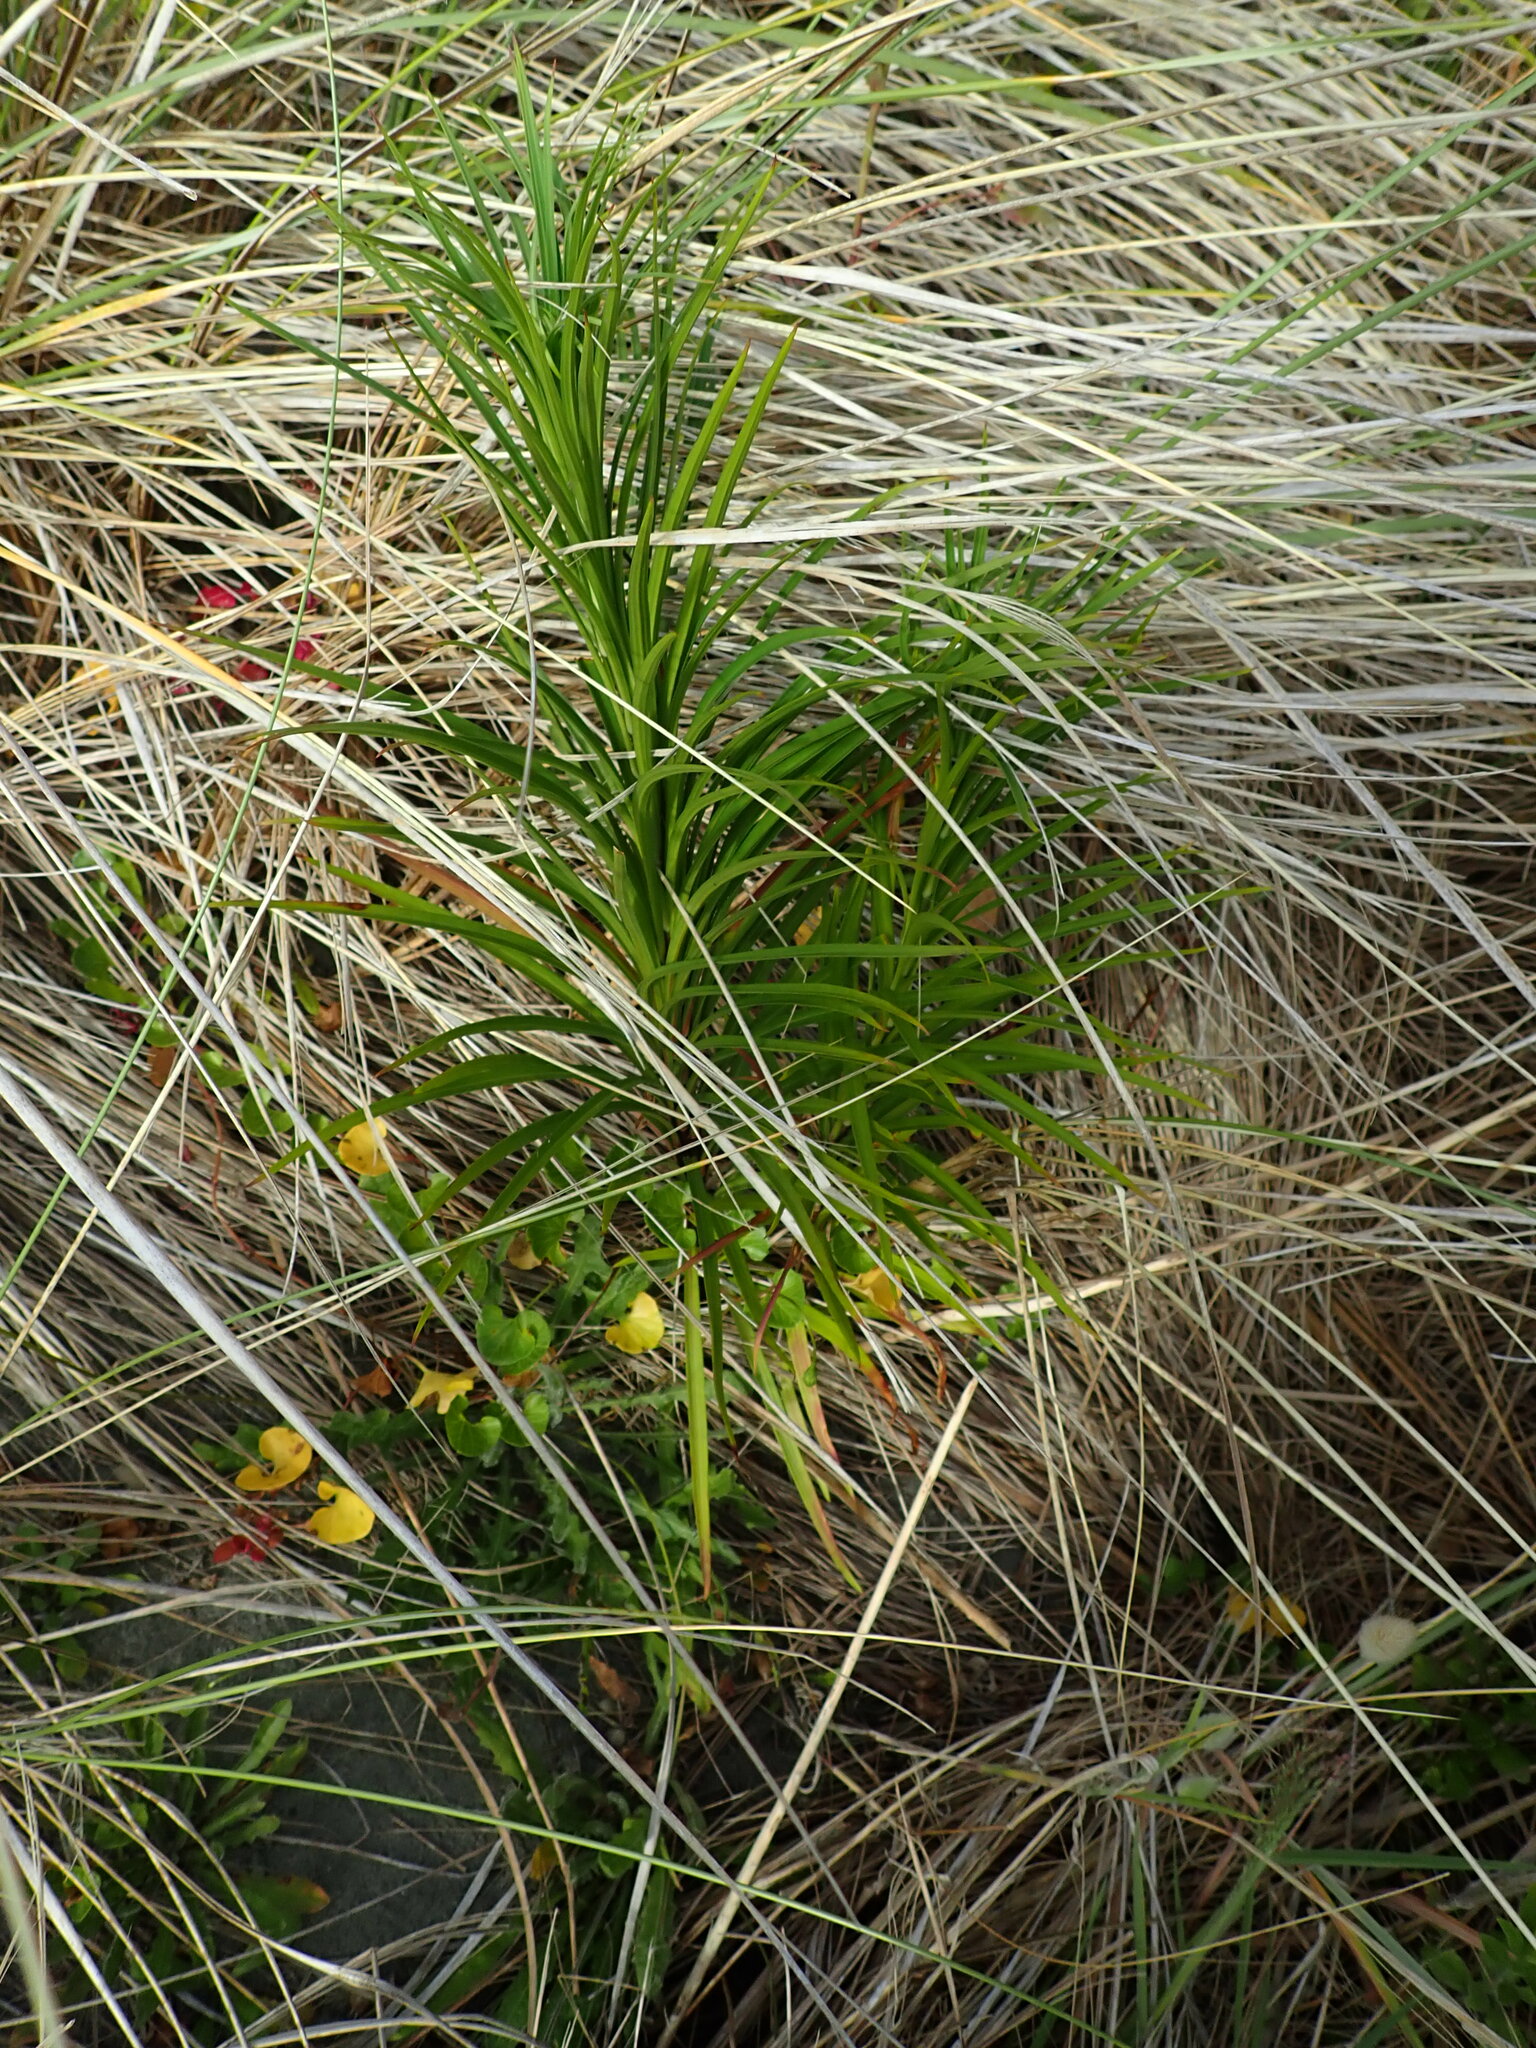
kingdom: Plantae
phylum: Tracheophyta
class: Liliopsida
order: Liliales
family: Liliaceae
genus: Lilium
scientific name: Lilium formosanum
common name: Formosa lily
